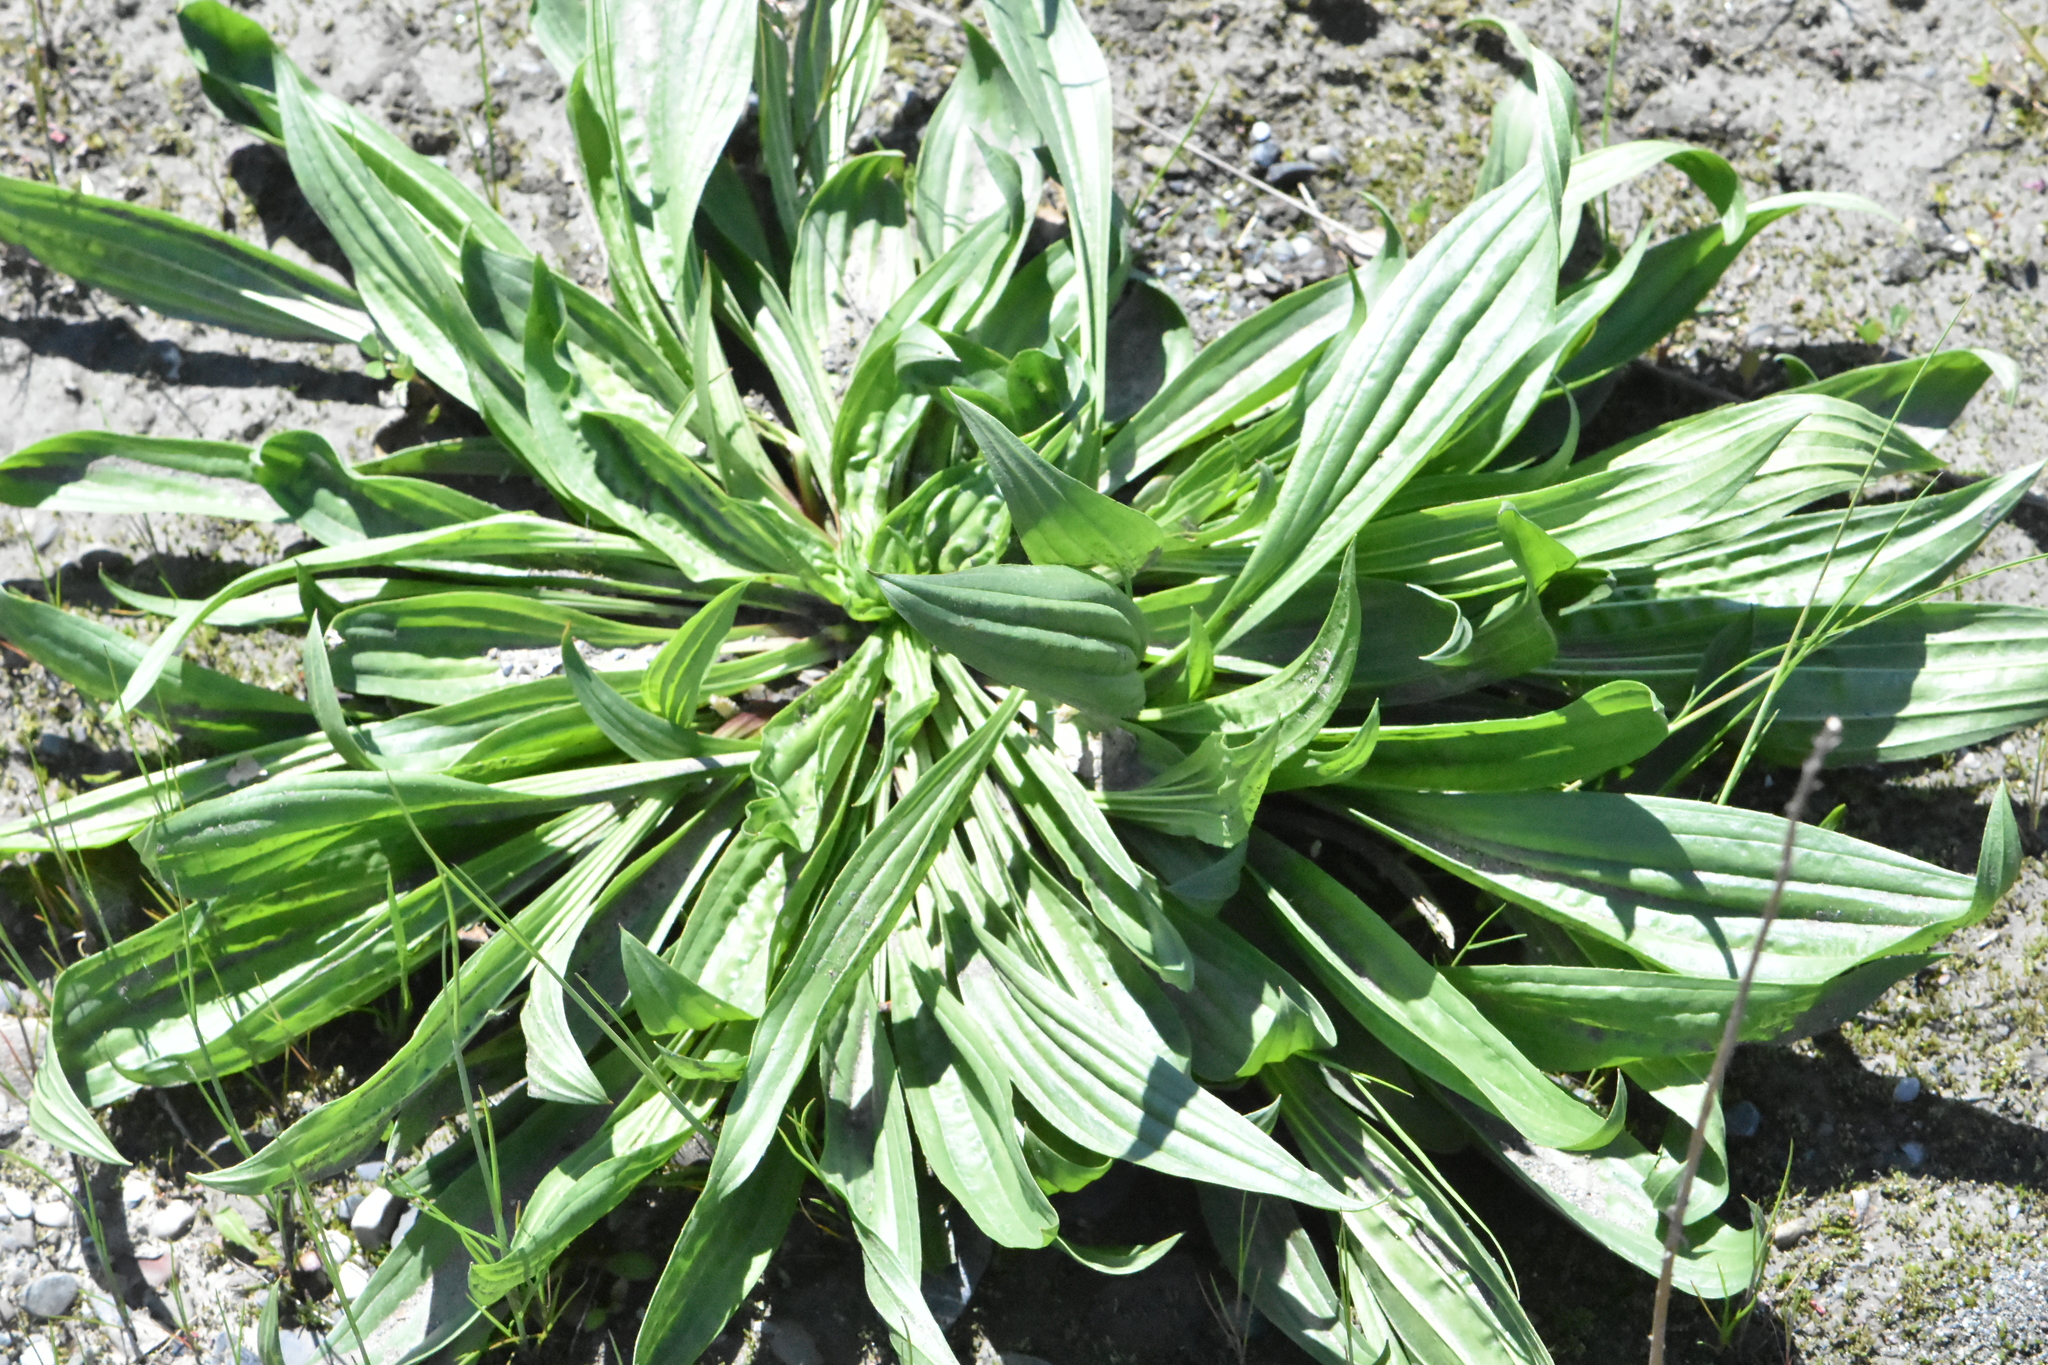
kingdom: Plantae
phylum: Tracheophyta
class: Magnoliopsida
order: Lamiales
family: Plantaginaceae
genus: Plantago
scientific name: Plantago lanceolata
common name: Ribwort plantain
